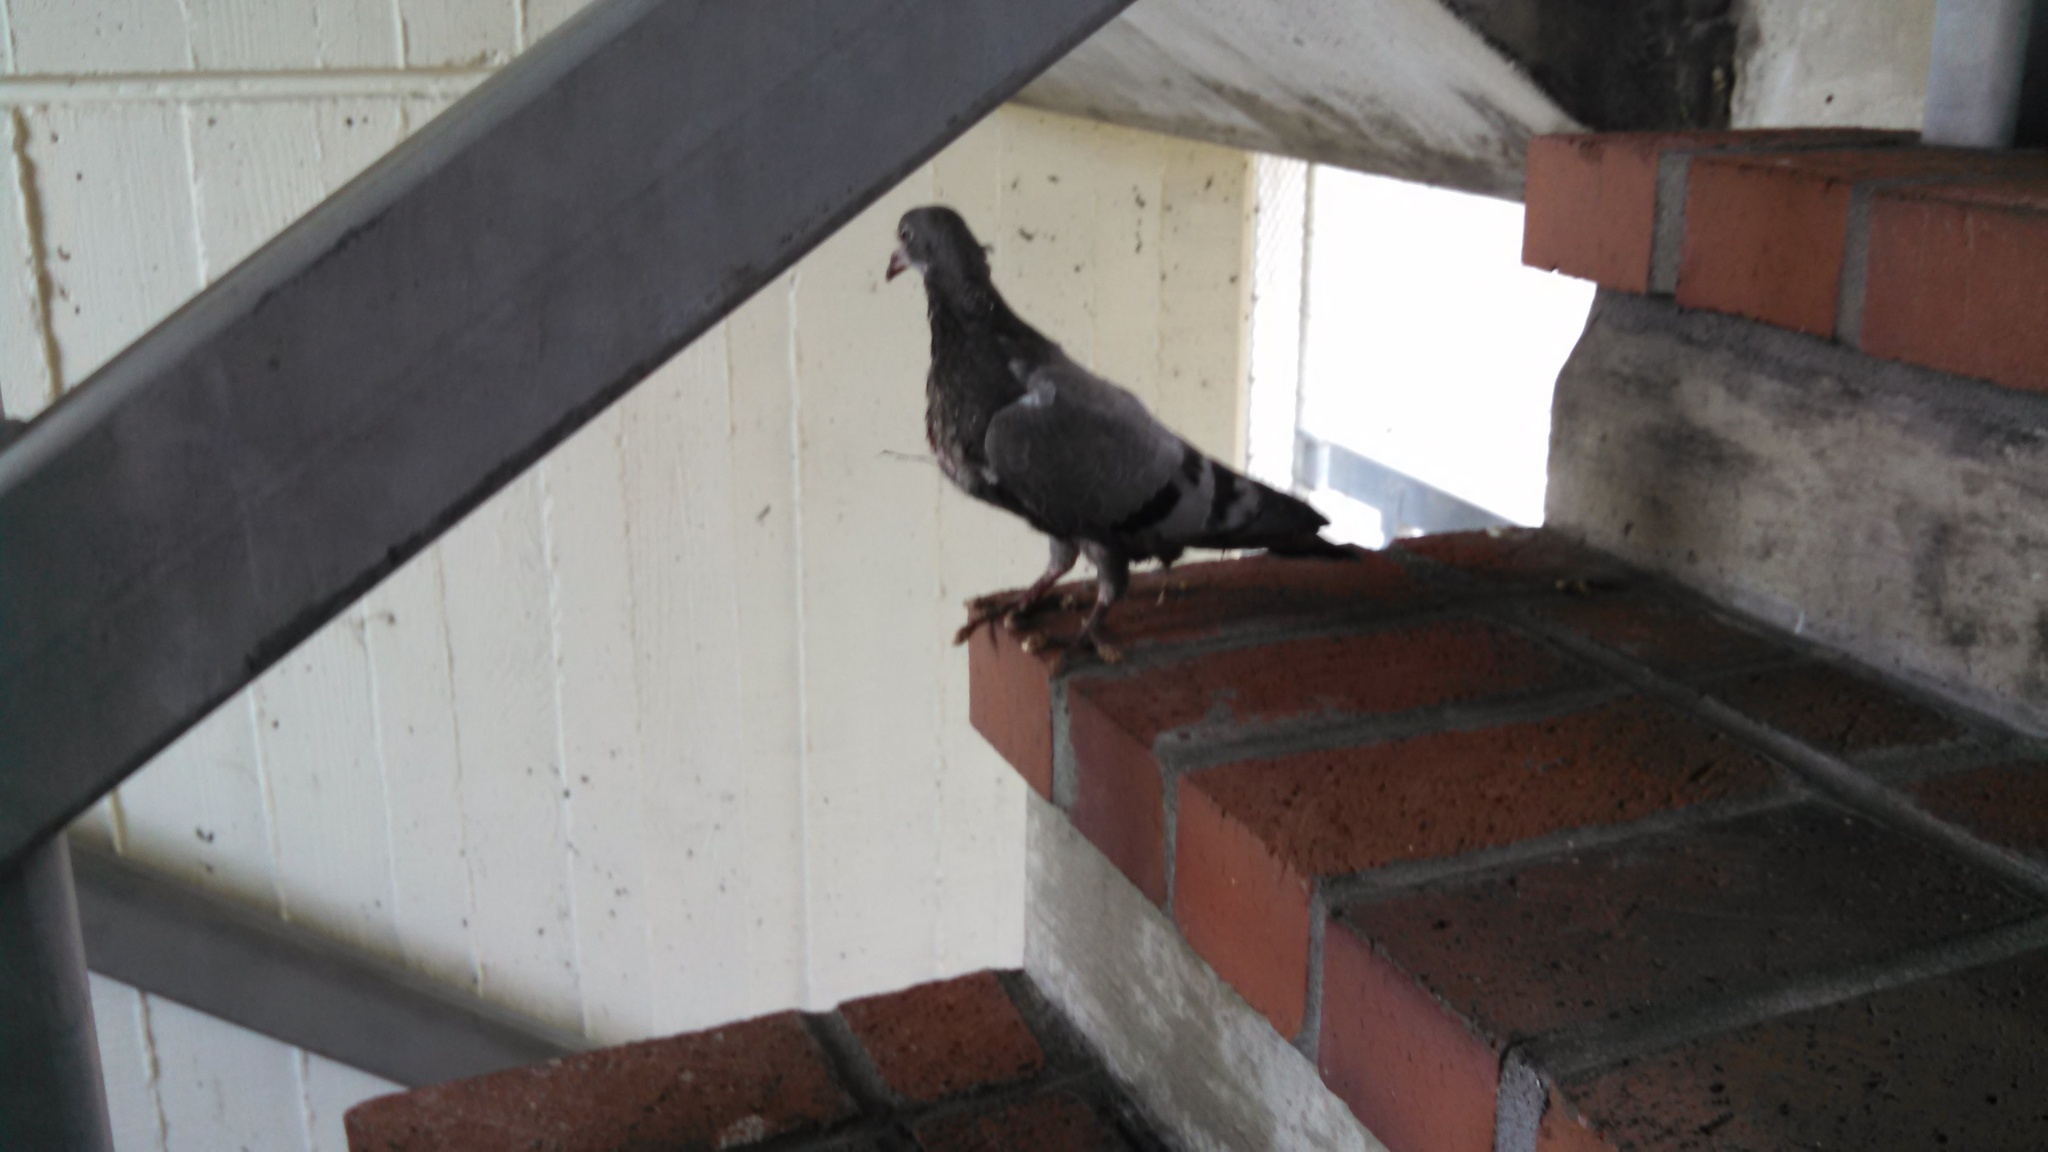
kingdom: Animalia
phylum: Chordata
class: Aves
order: Columbiformes
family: Columbidae
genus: Columba
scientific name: Columba livia
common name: Rock pigeon
